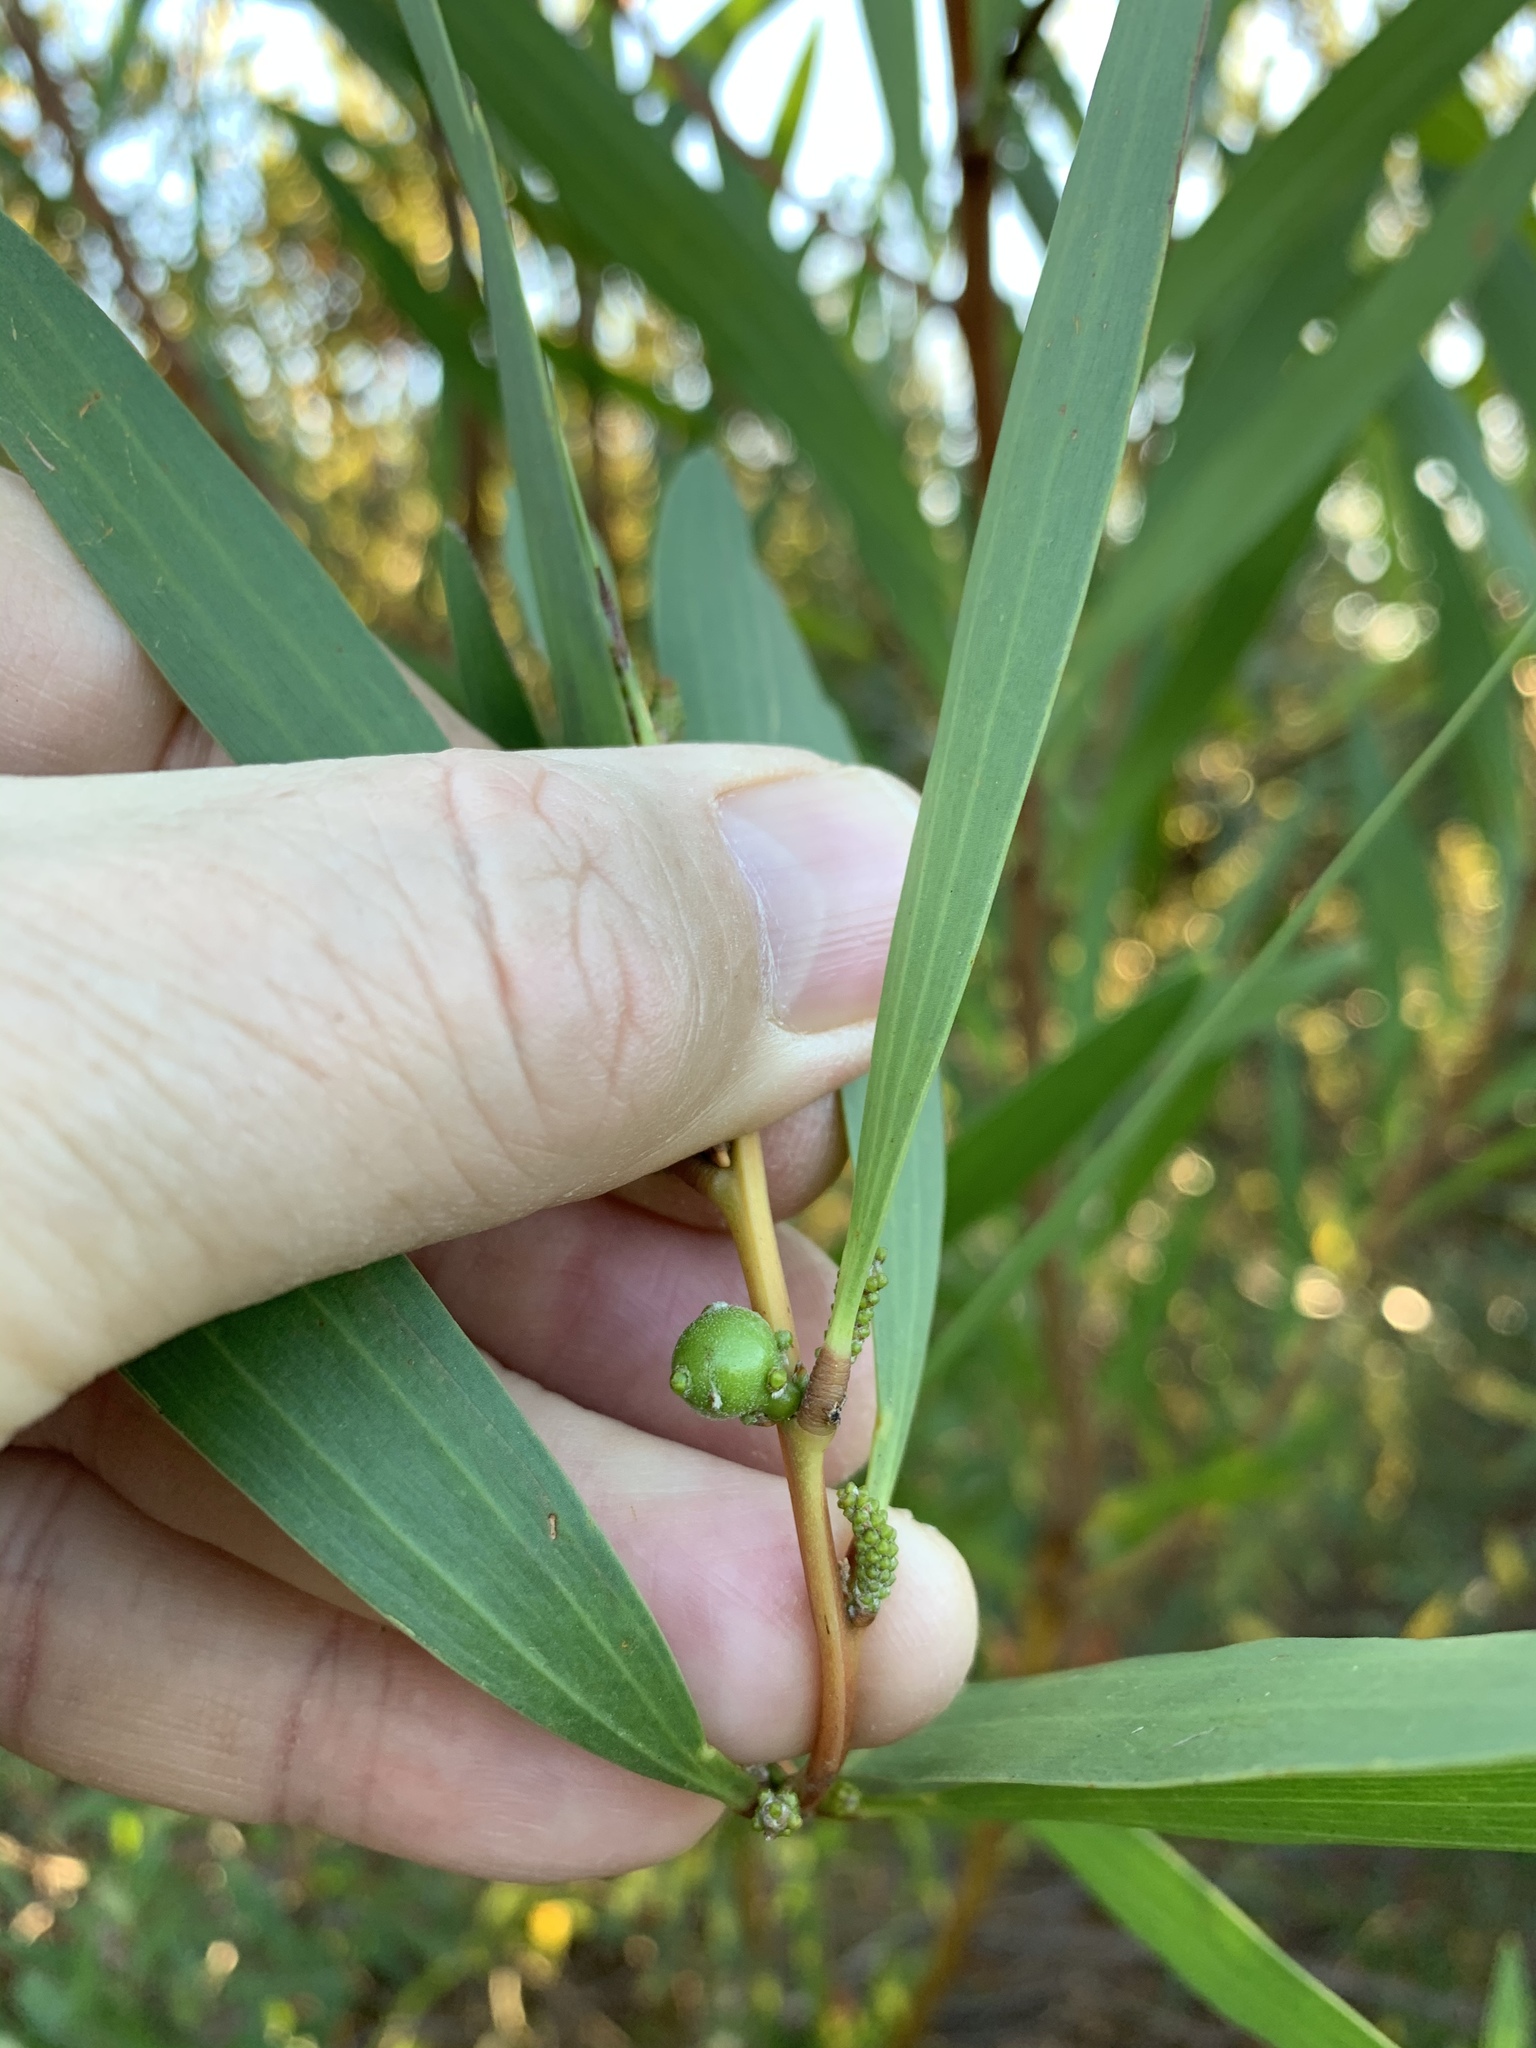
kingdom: Animalia
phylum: Arthropoda
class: Insecta
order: Hymenoptera
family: Pteromalidae
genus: Trichilogaster
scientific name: Trichilogaster acaciaelongifoliae
